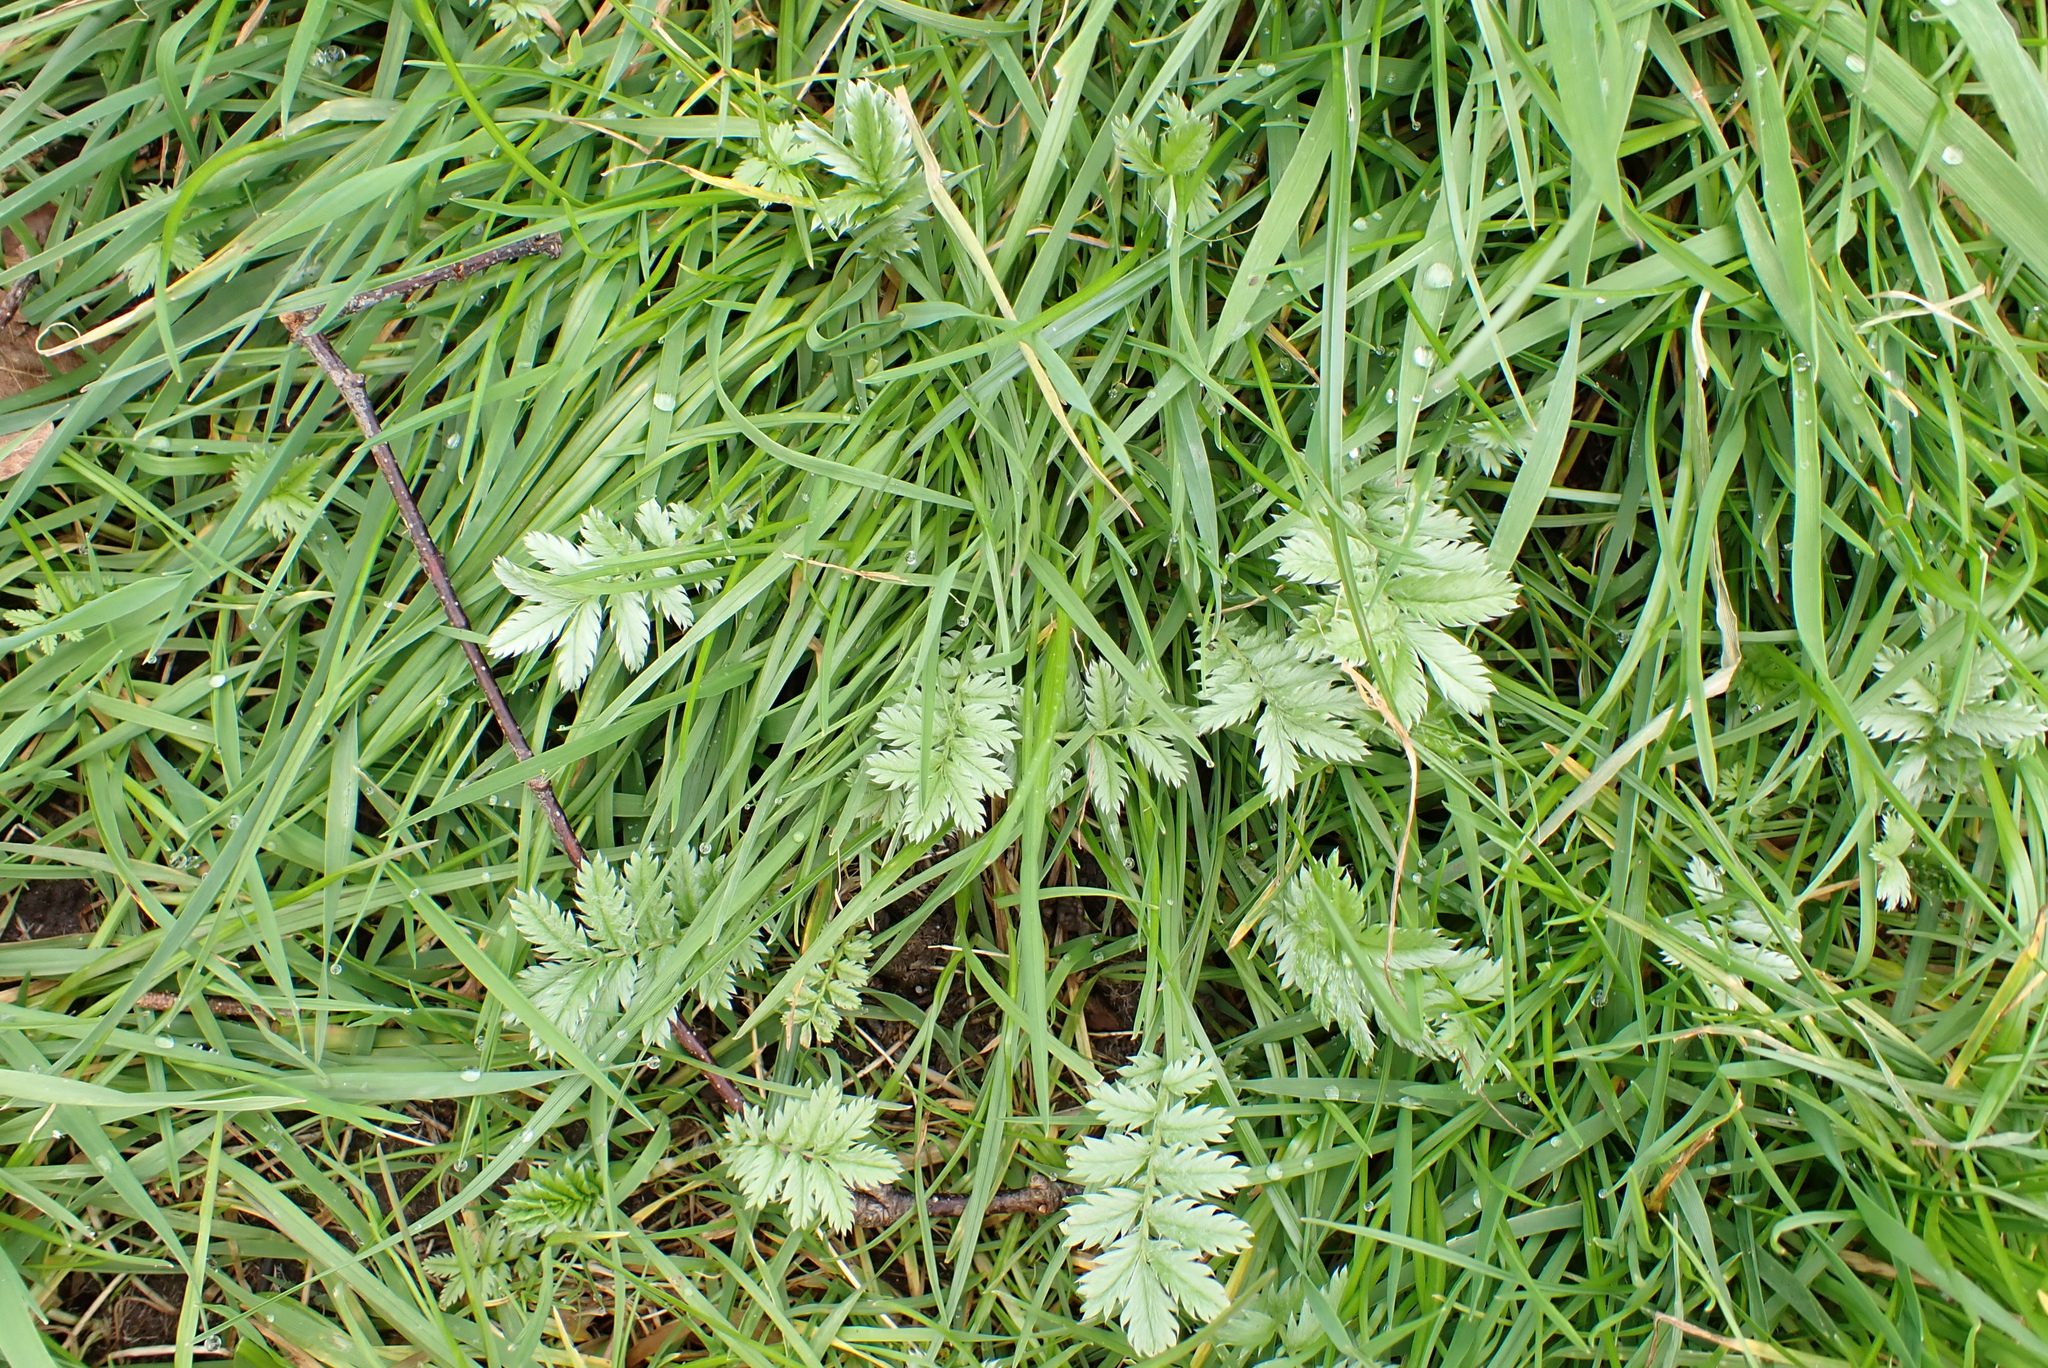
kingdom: Plantae
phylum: Tracheophyta
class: Magnoliopsida
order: Rosales
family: Rosaceae
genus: Argentina
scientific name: Argentina anserina
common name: Common silverweed
